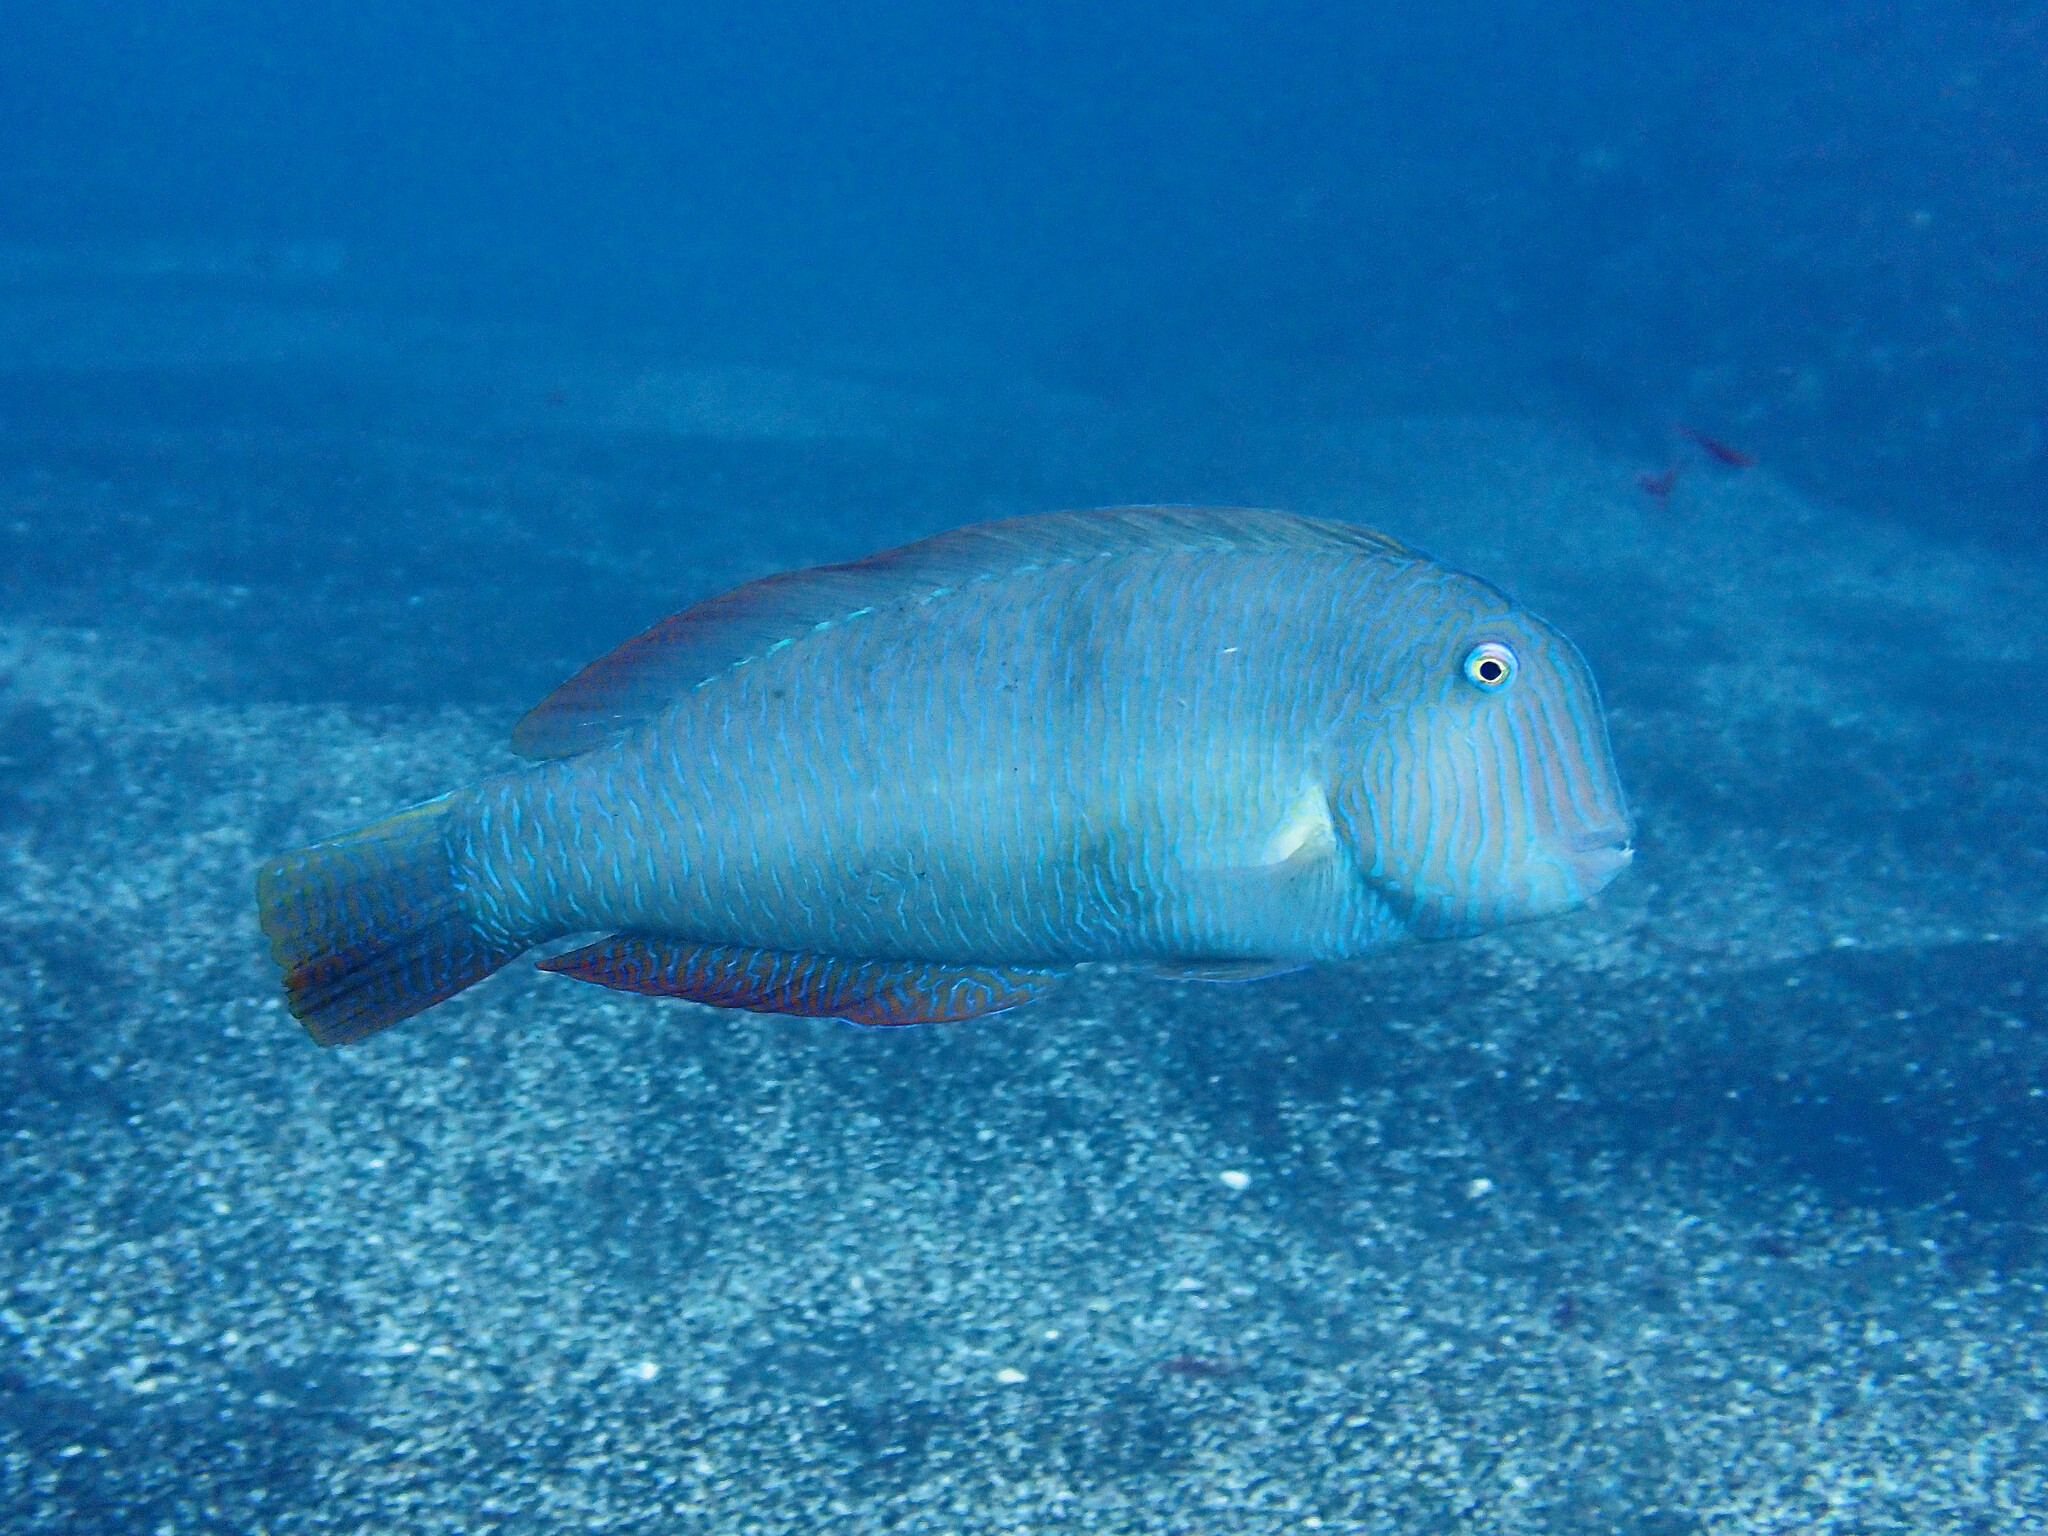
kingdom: Animalia
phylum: Chordata
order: Perciformes
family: Labridae
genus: Xyrichtys
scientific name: Xyrichtys novacula
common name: Pearly razorfish
